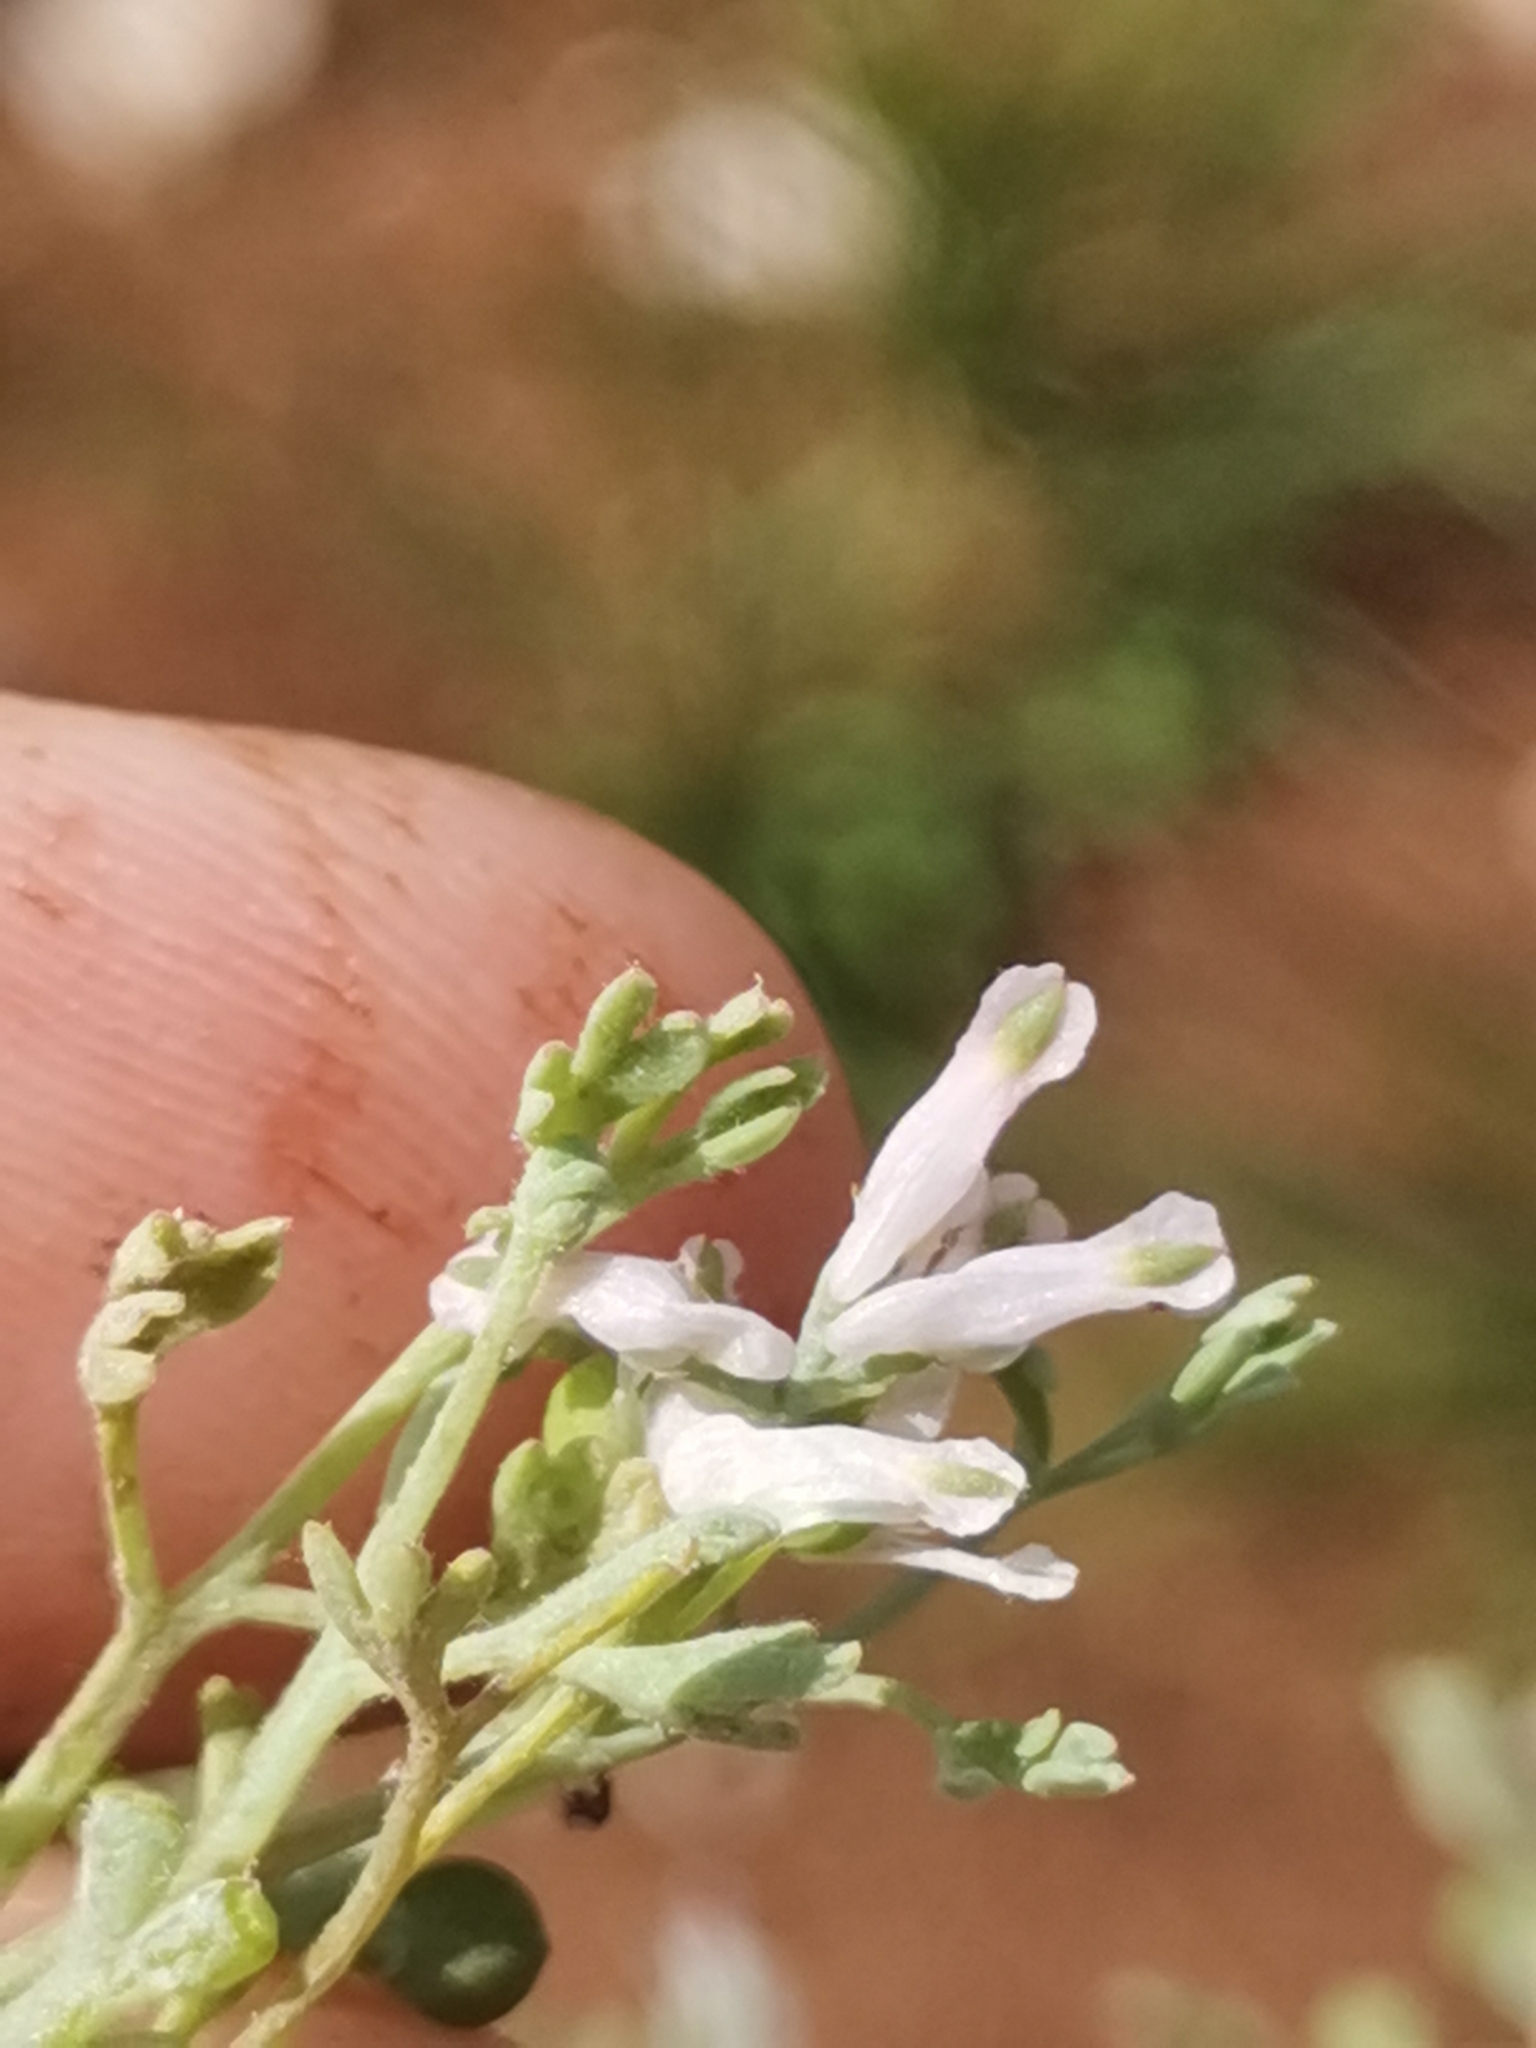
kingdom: Plantae
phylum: Tracheophyta
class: Magnoliopsida
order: Ranunculales
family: Papaveraceae
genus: Fumaria
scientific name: Fumaria parviflora
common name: Fine-leaved fumitory
